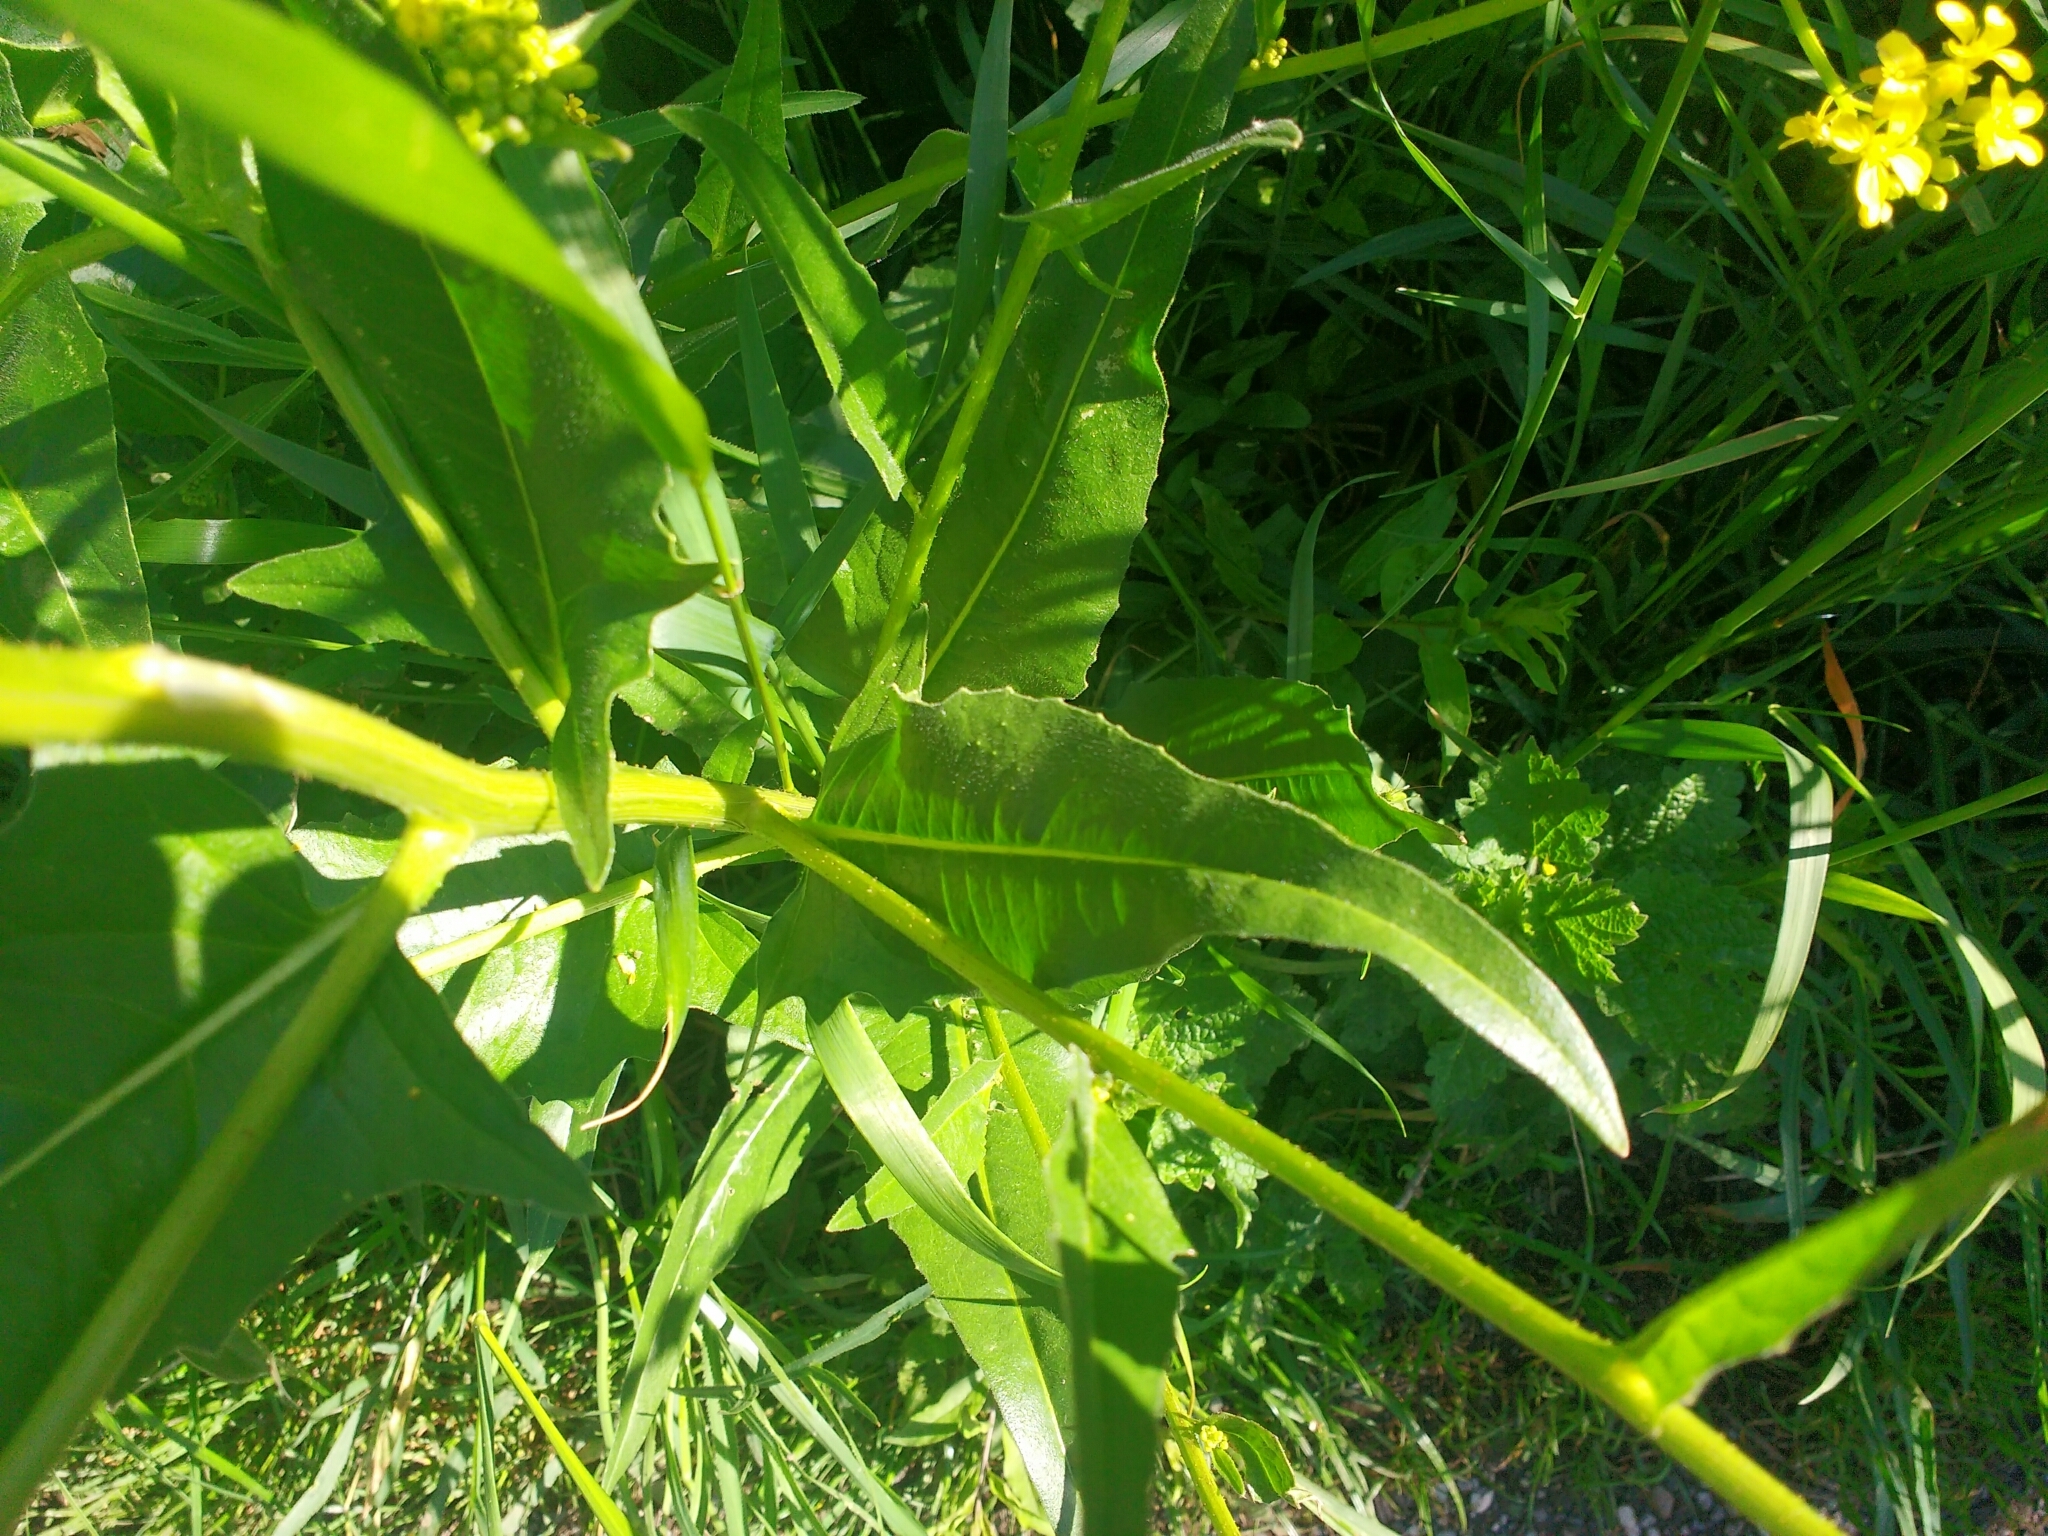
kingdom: Plantae
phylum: Tracheophyta
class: Magnoliopsida
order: Brassicales
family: Brassicaceae
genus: Bunias
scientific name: Bunias orientalis
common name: Warty-cabbage
